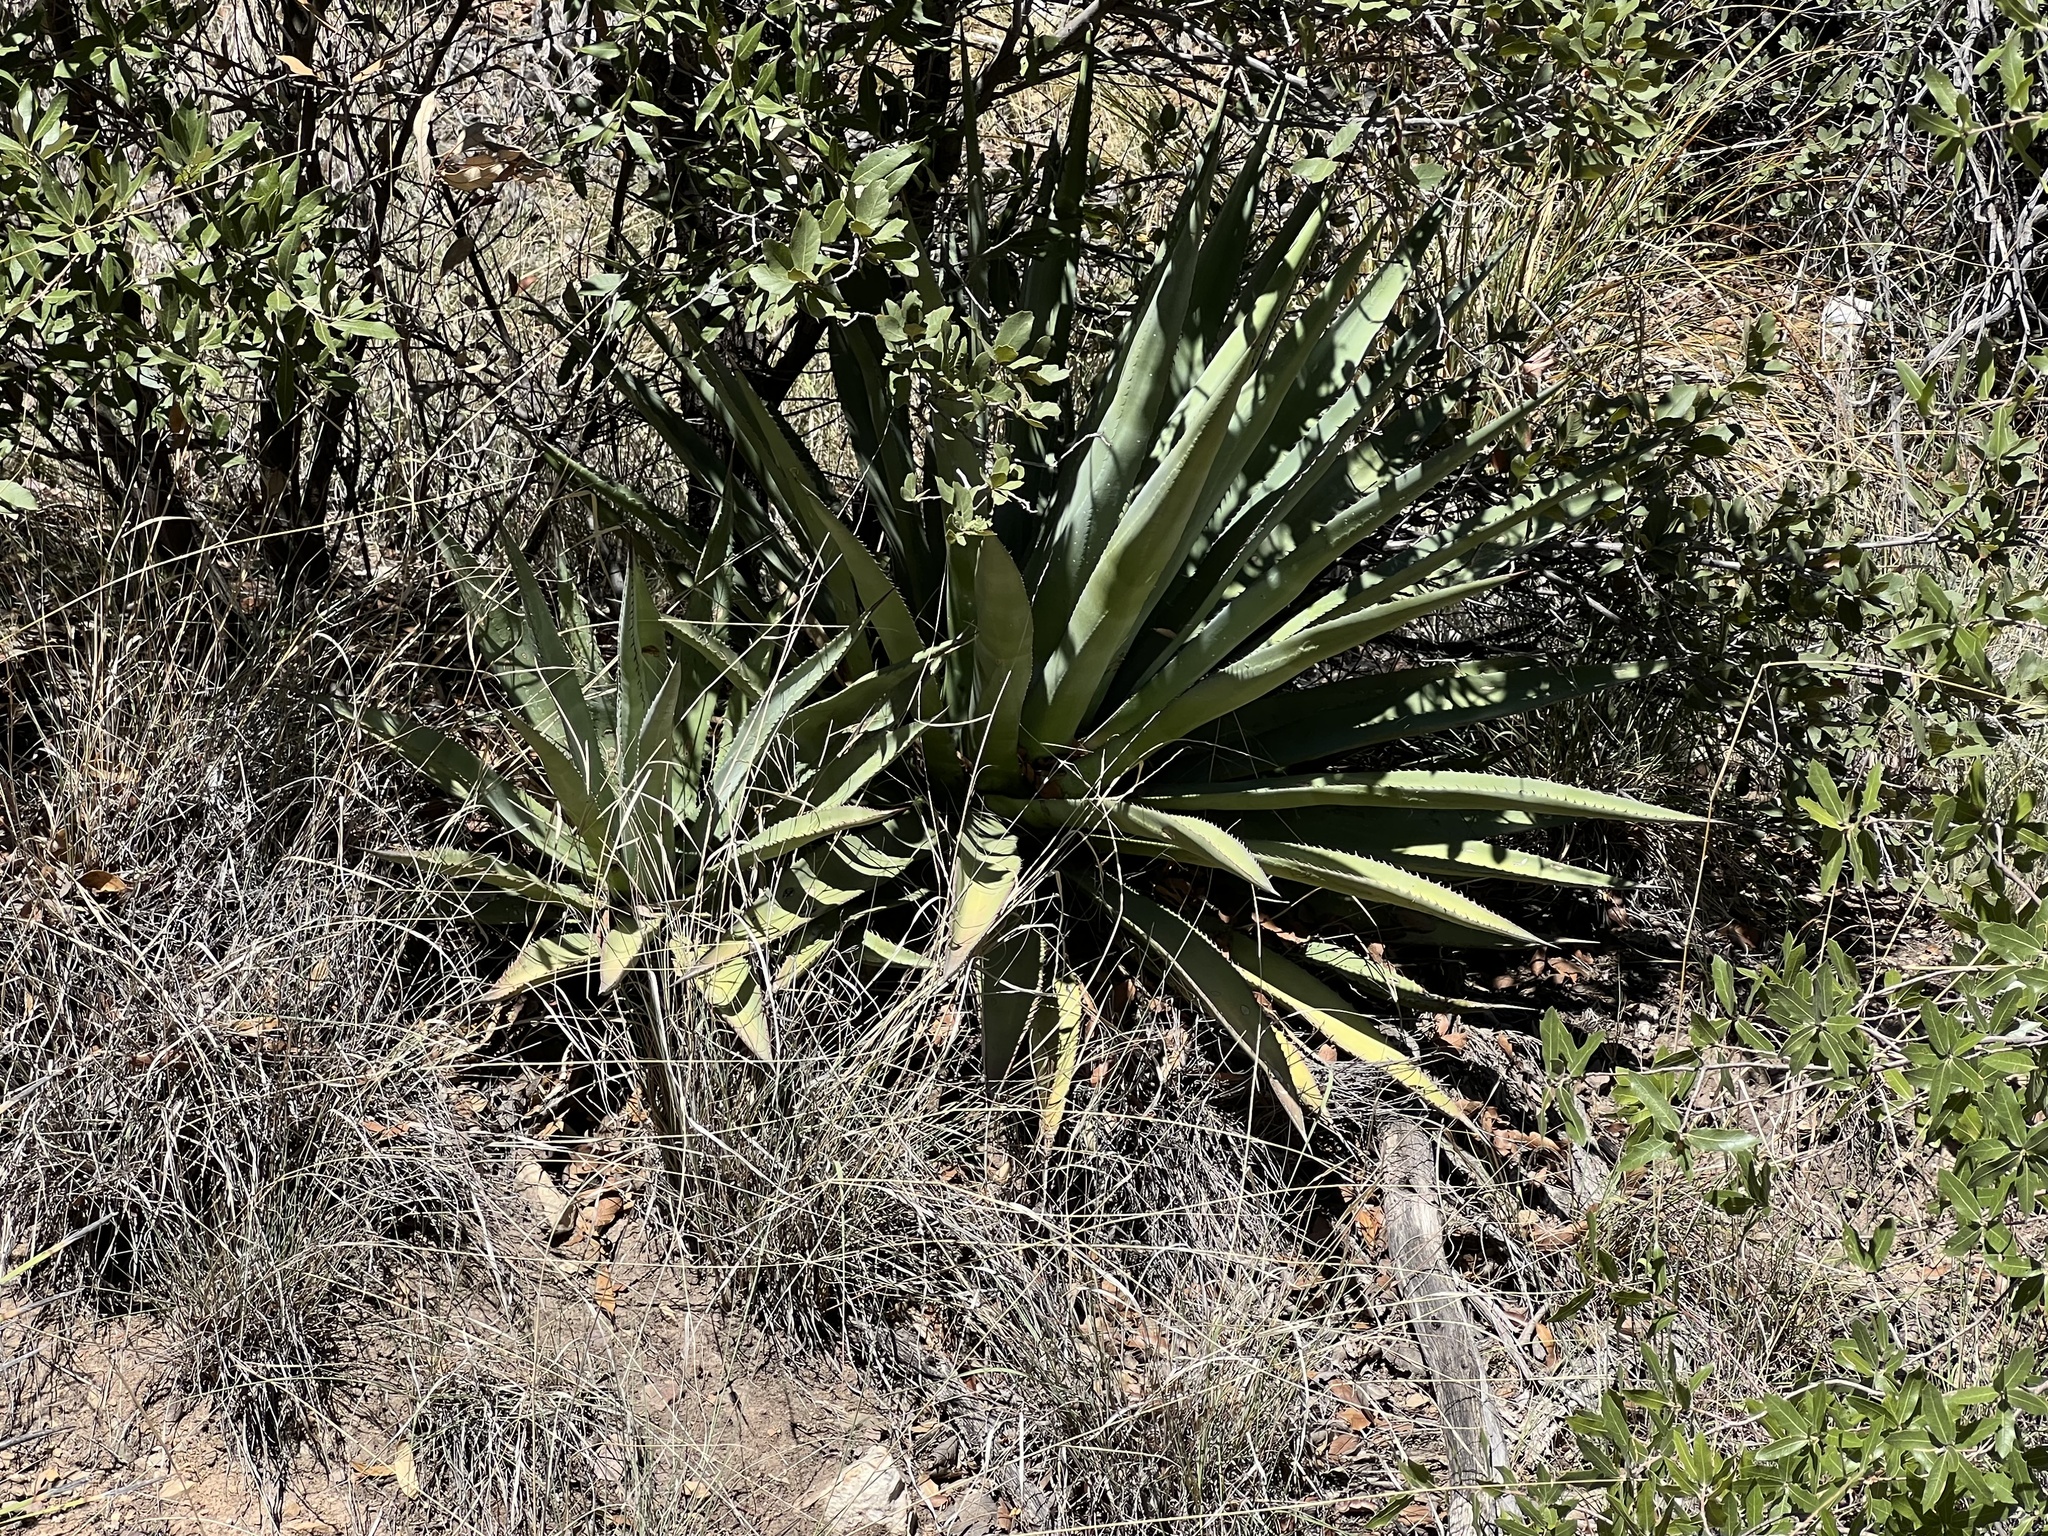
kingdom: Plantae
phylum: Tracheophyta
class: Liliopsida
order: Asparagales
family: Asparagaceae
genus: Agave
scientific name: Agave palmeri
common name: Palmer agave
